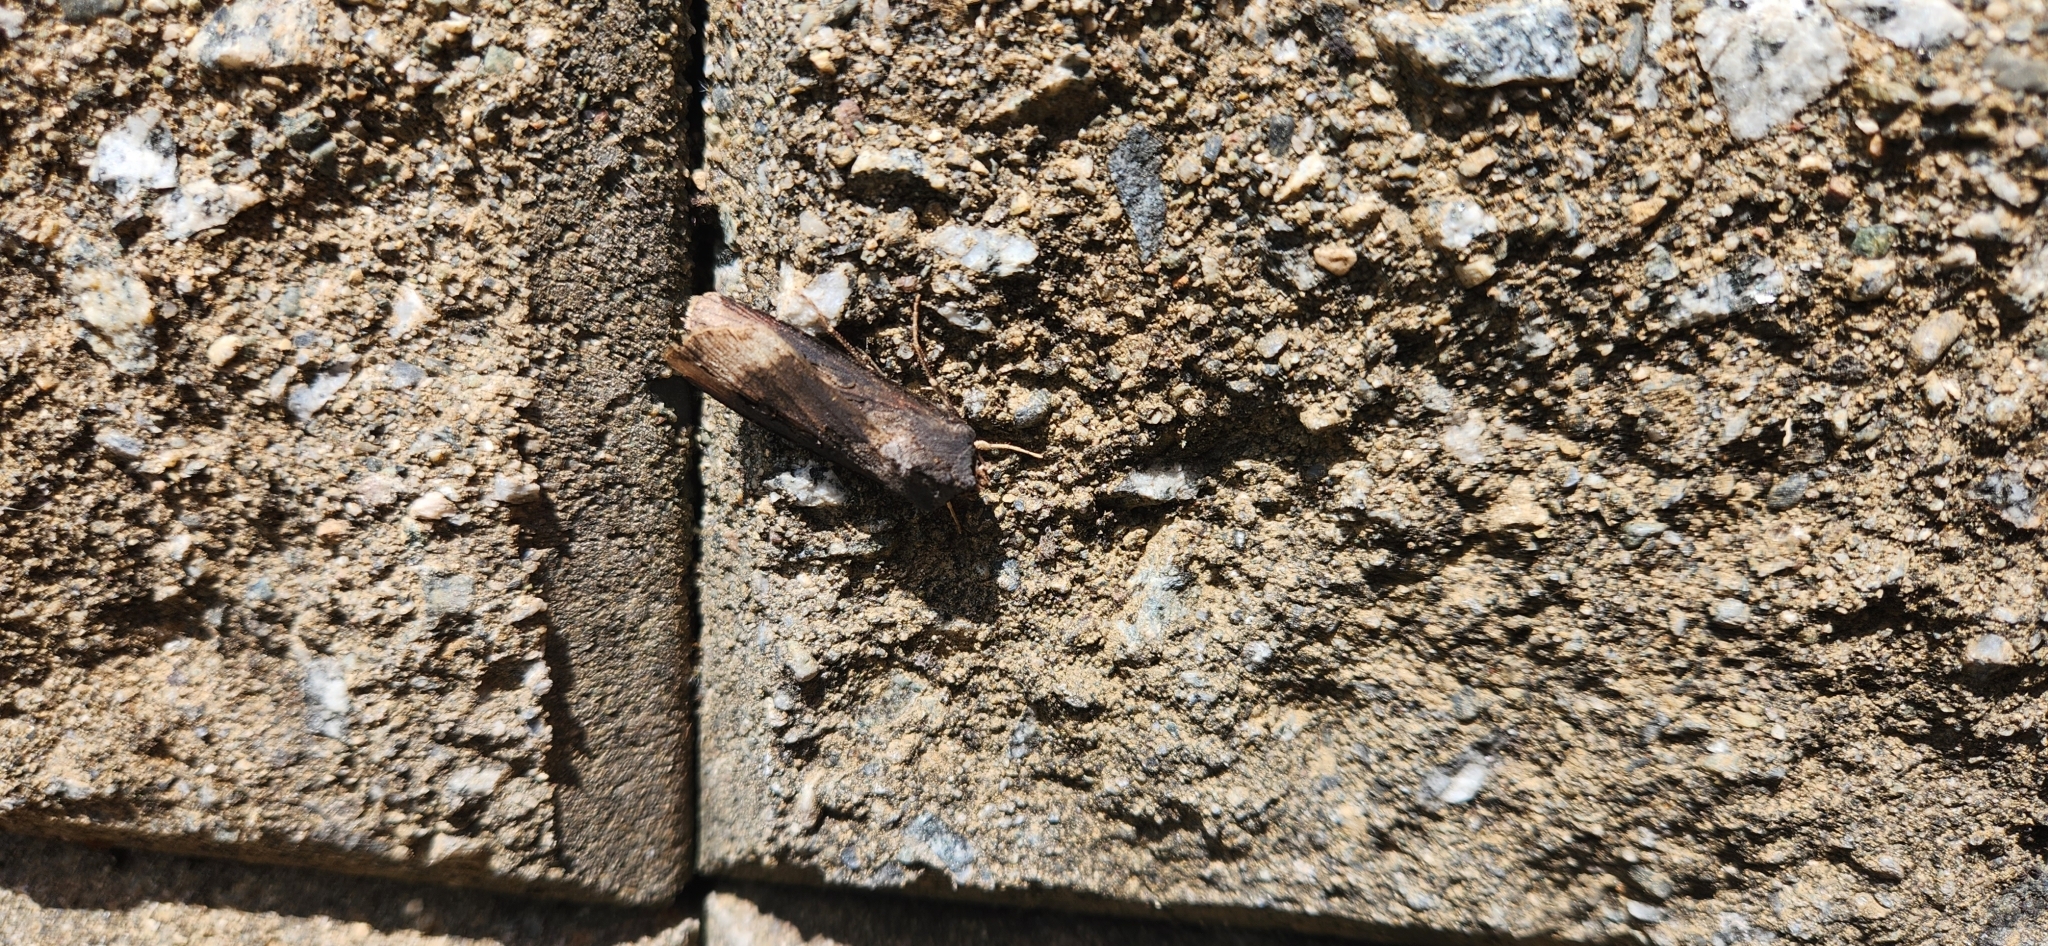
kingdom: Animalia
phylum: Arthropoda
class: Insecta
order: Lepidoptera
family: Noctuidae
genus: Agrotis
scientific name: Agrotis ipsilon
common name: Dark sword-grass
